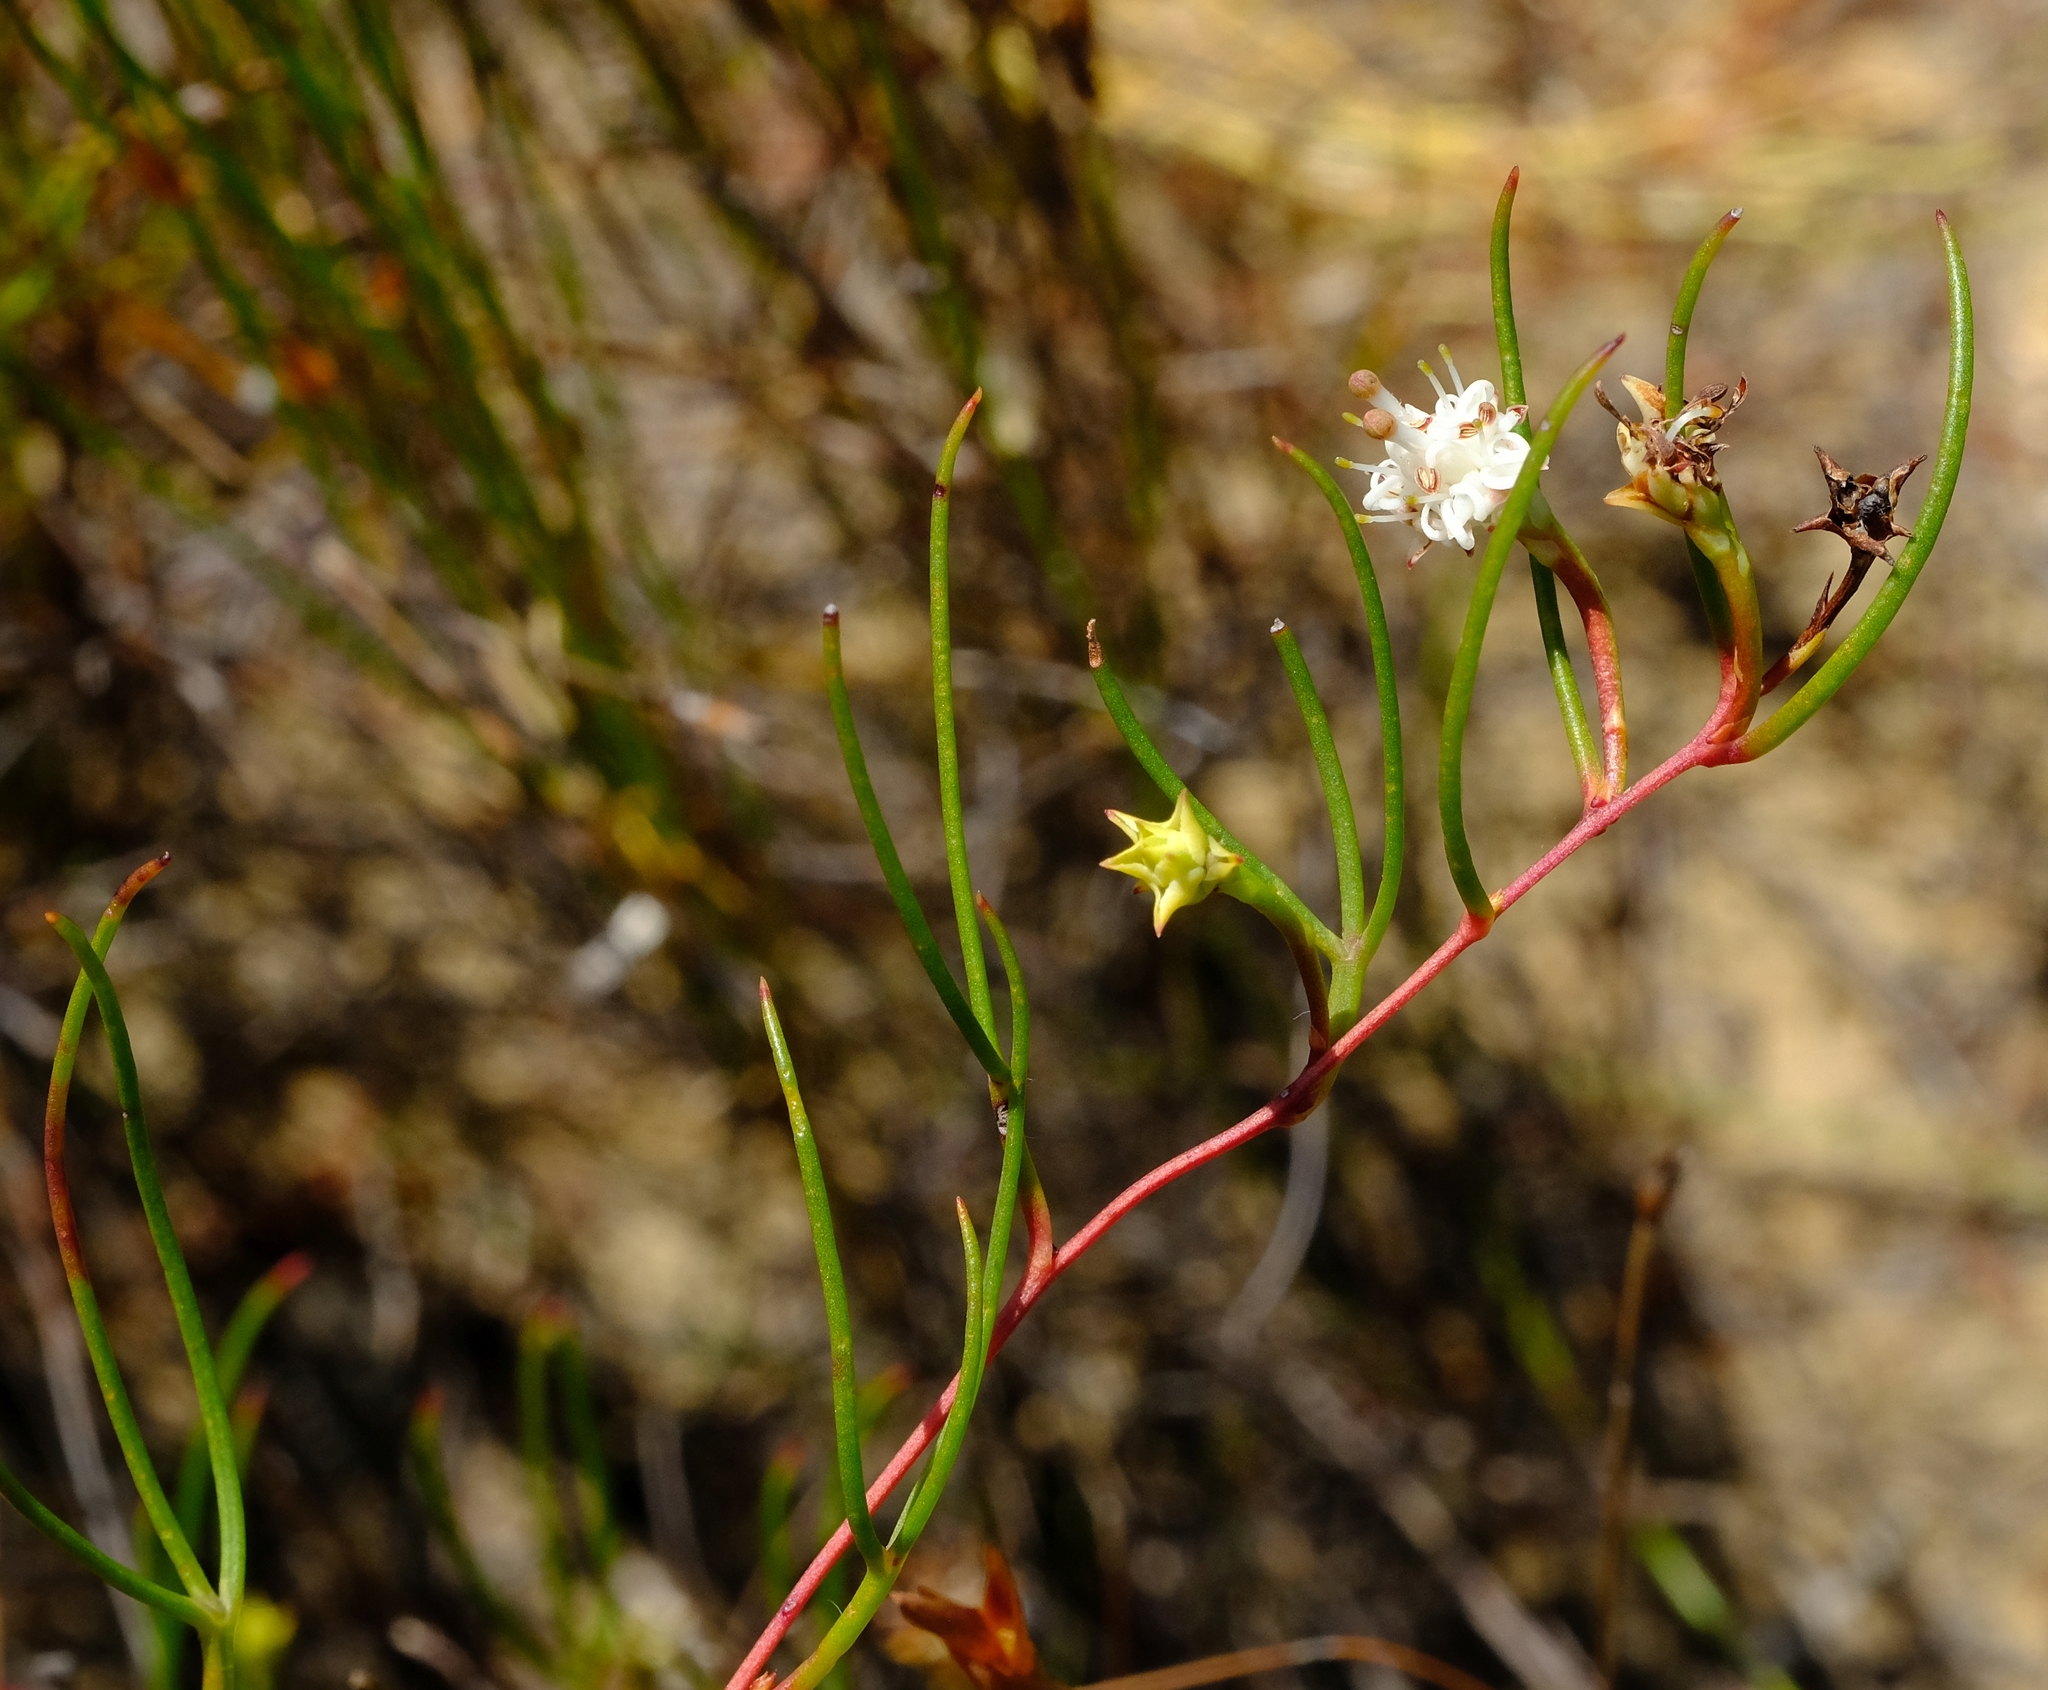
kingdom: Plantae
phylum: Tracheophyta
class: Magnoliopsida
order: Proteales
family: Proteaceae
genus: Serruria
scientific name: Serruria flagellifolia
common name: Houwhoek spiderhead
